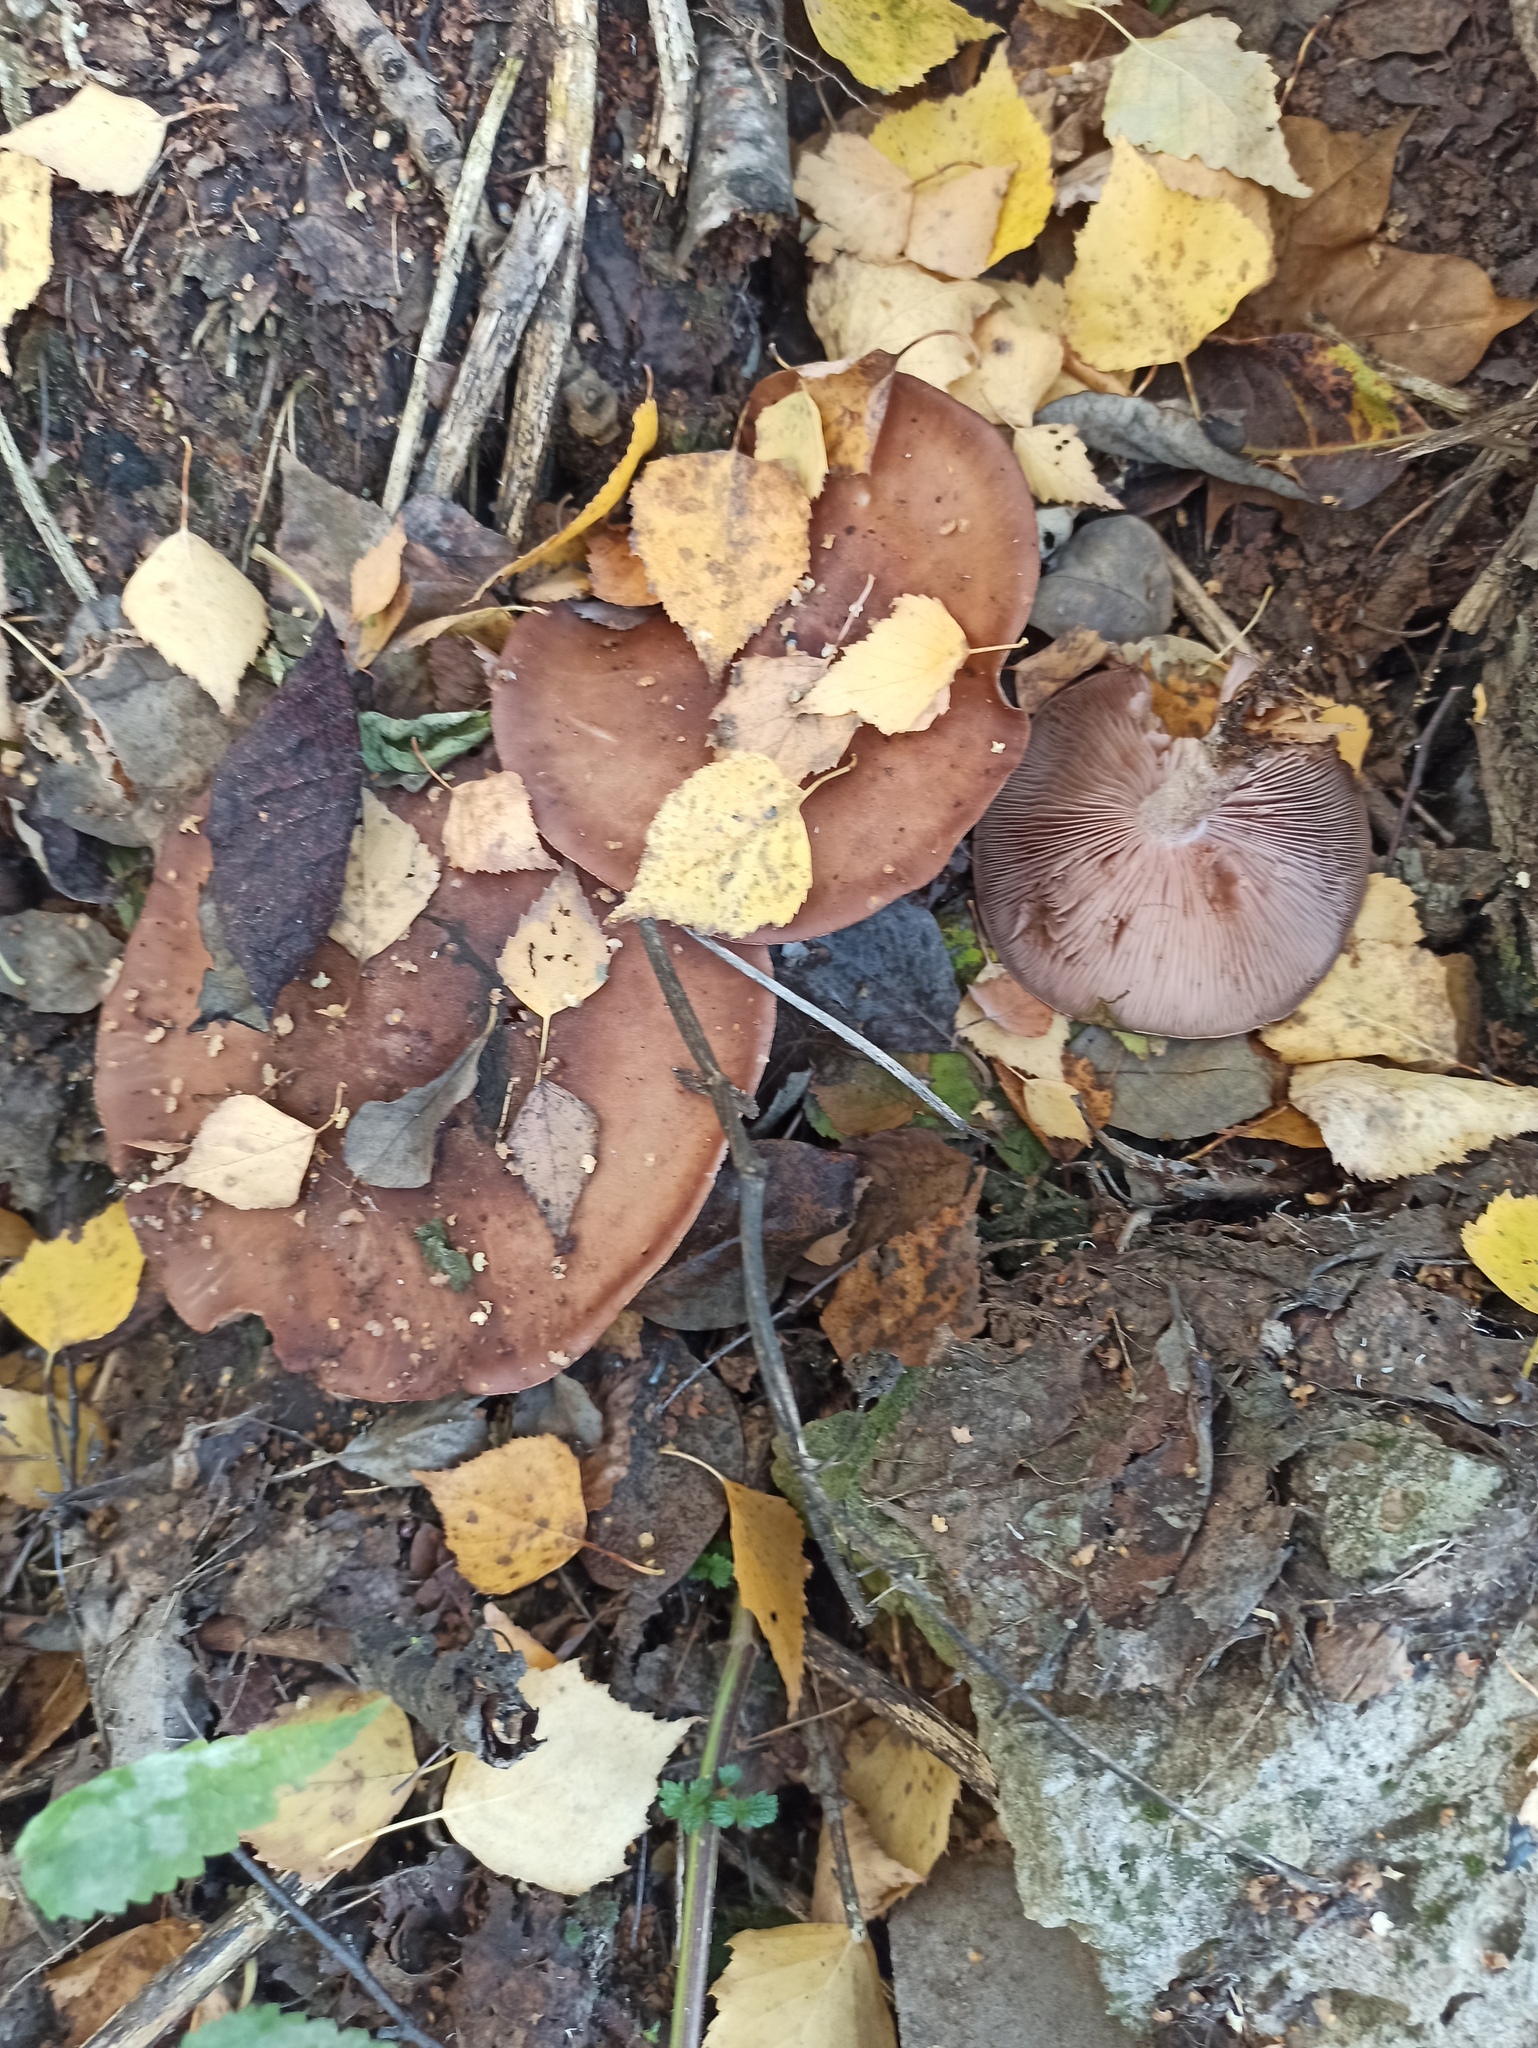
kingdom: Fungi
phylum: Basidiomycota
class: Agaricomycetes
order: Agaricales
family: Tricholomataceae
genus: Collybia
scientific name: Collybia
